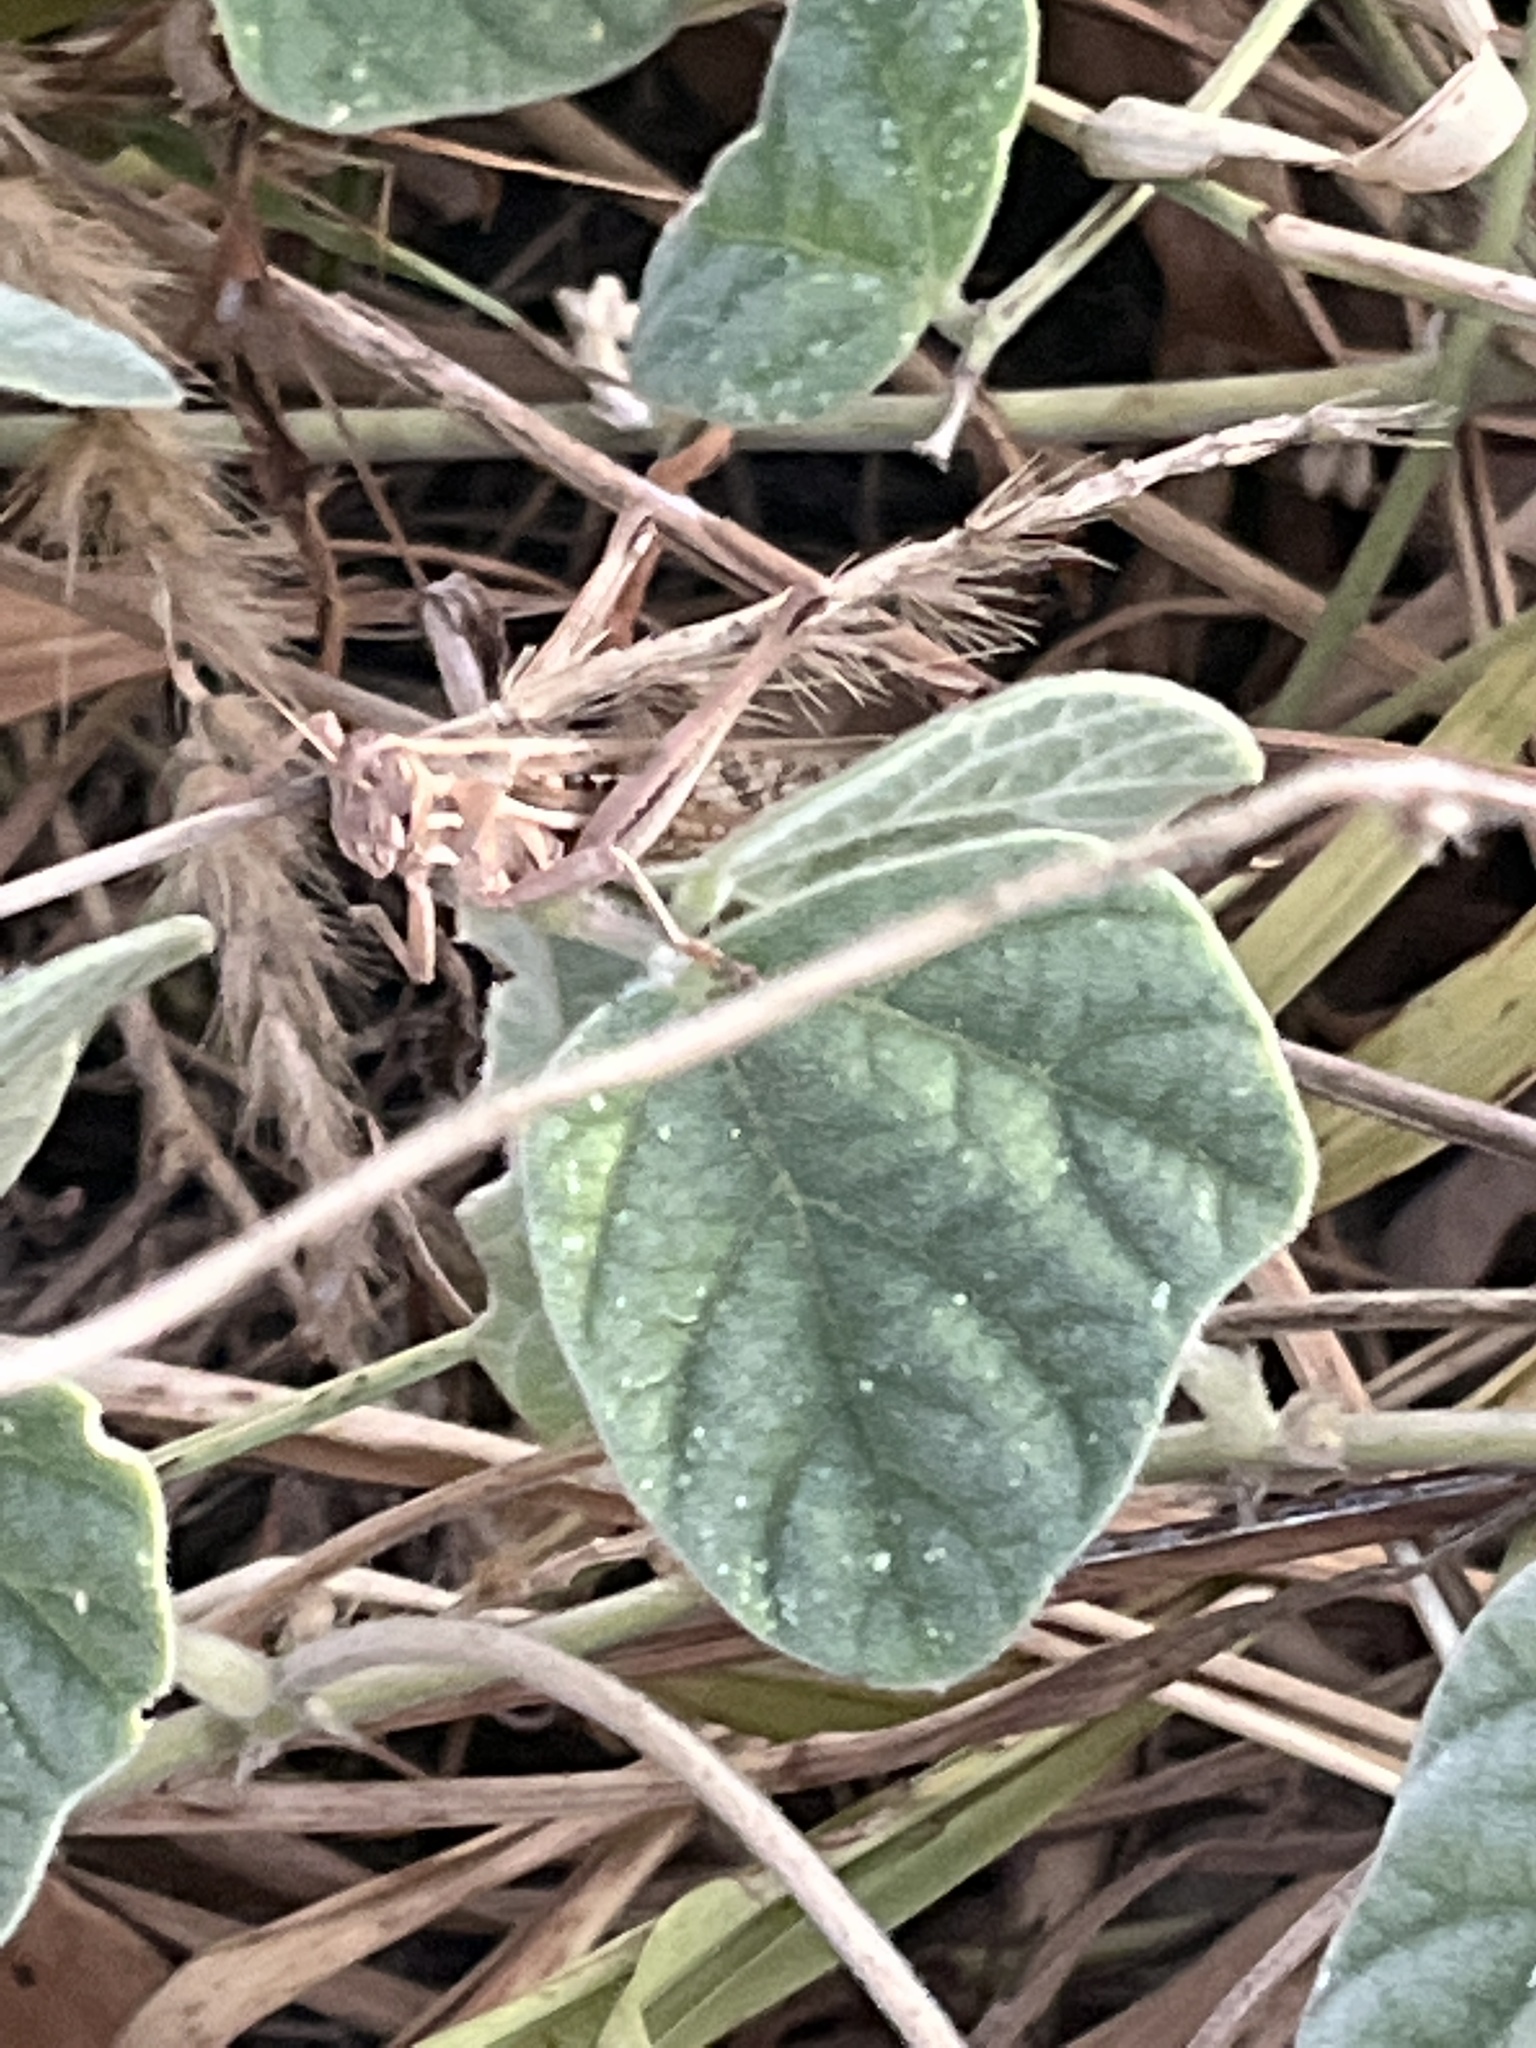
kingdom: Animalia
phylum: Arthropoda
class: Insecta
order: Orthoptera
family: Acrididae
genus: Schistocerca
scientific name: Schistocerca piceifrons
